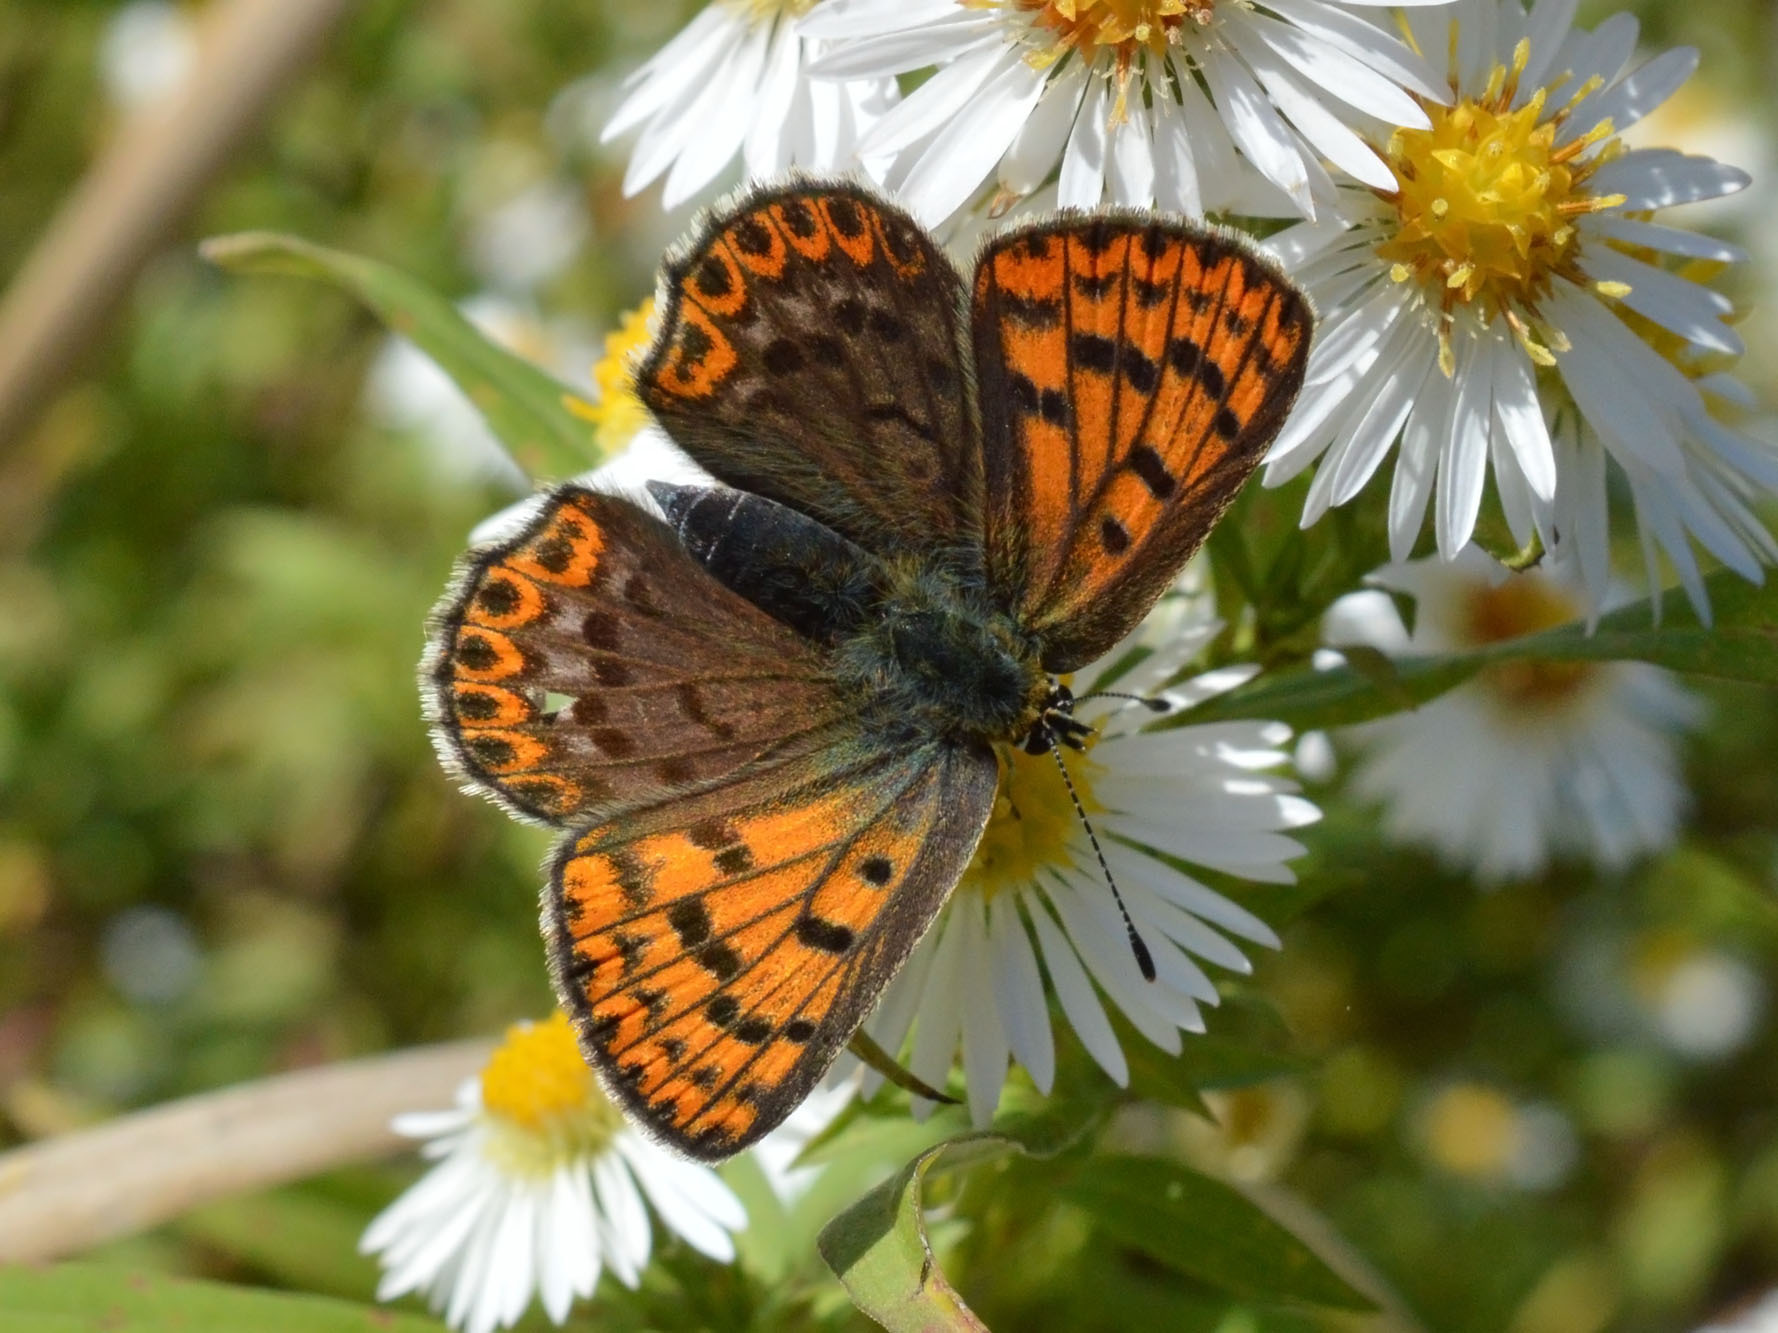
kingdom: Animalia
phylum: Arthropoda
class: Insecta
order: Lepidoptera
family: Lycaenidae
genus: Loweia
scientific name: Loweia tityrus
